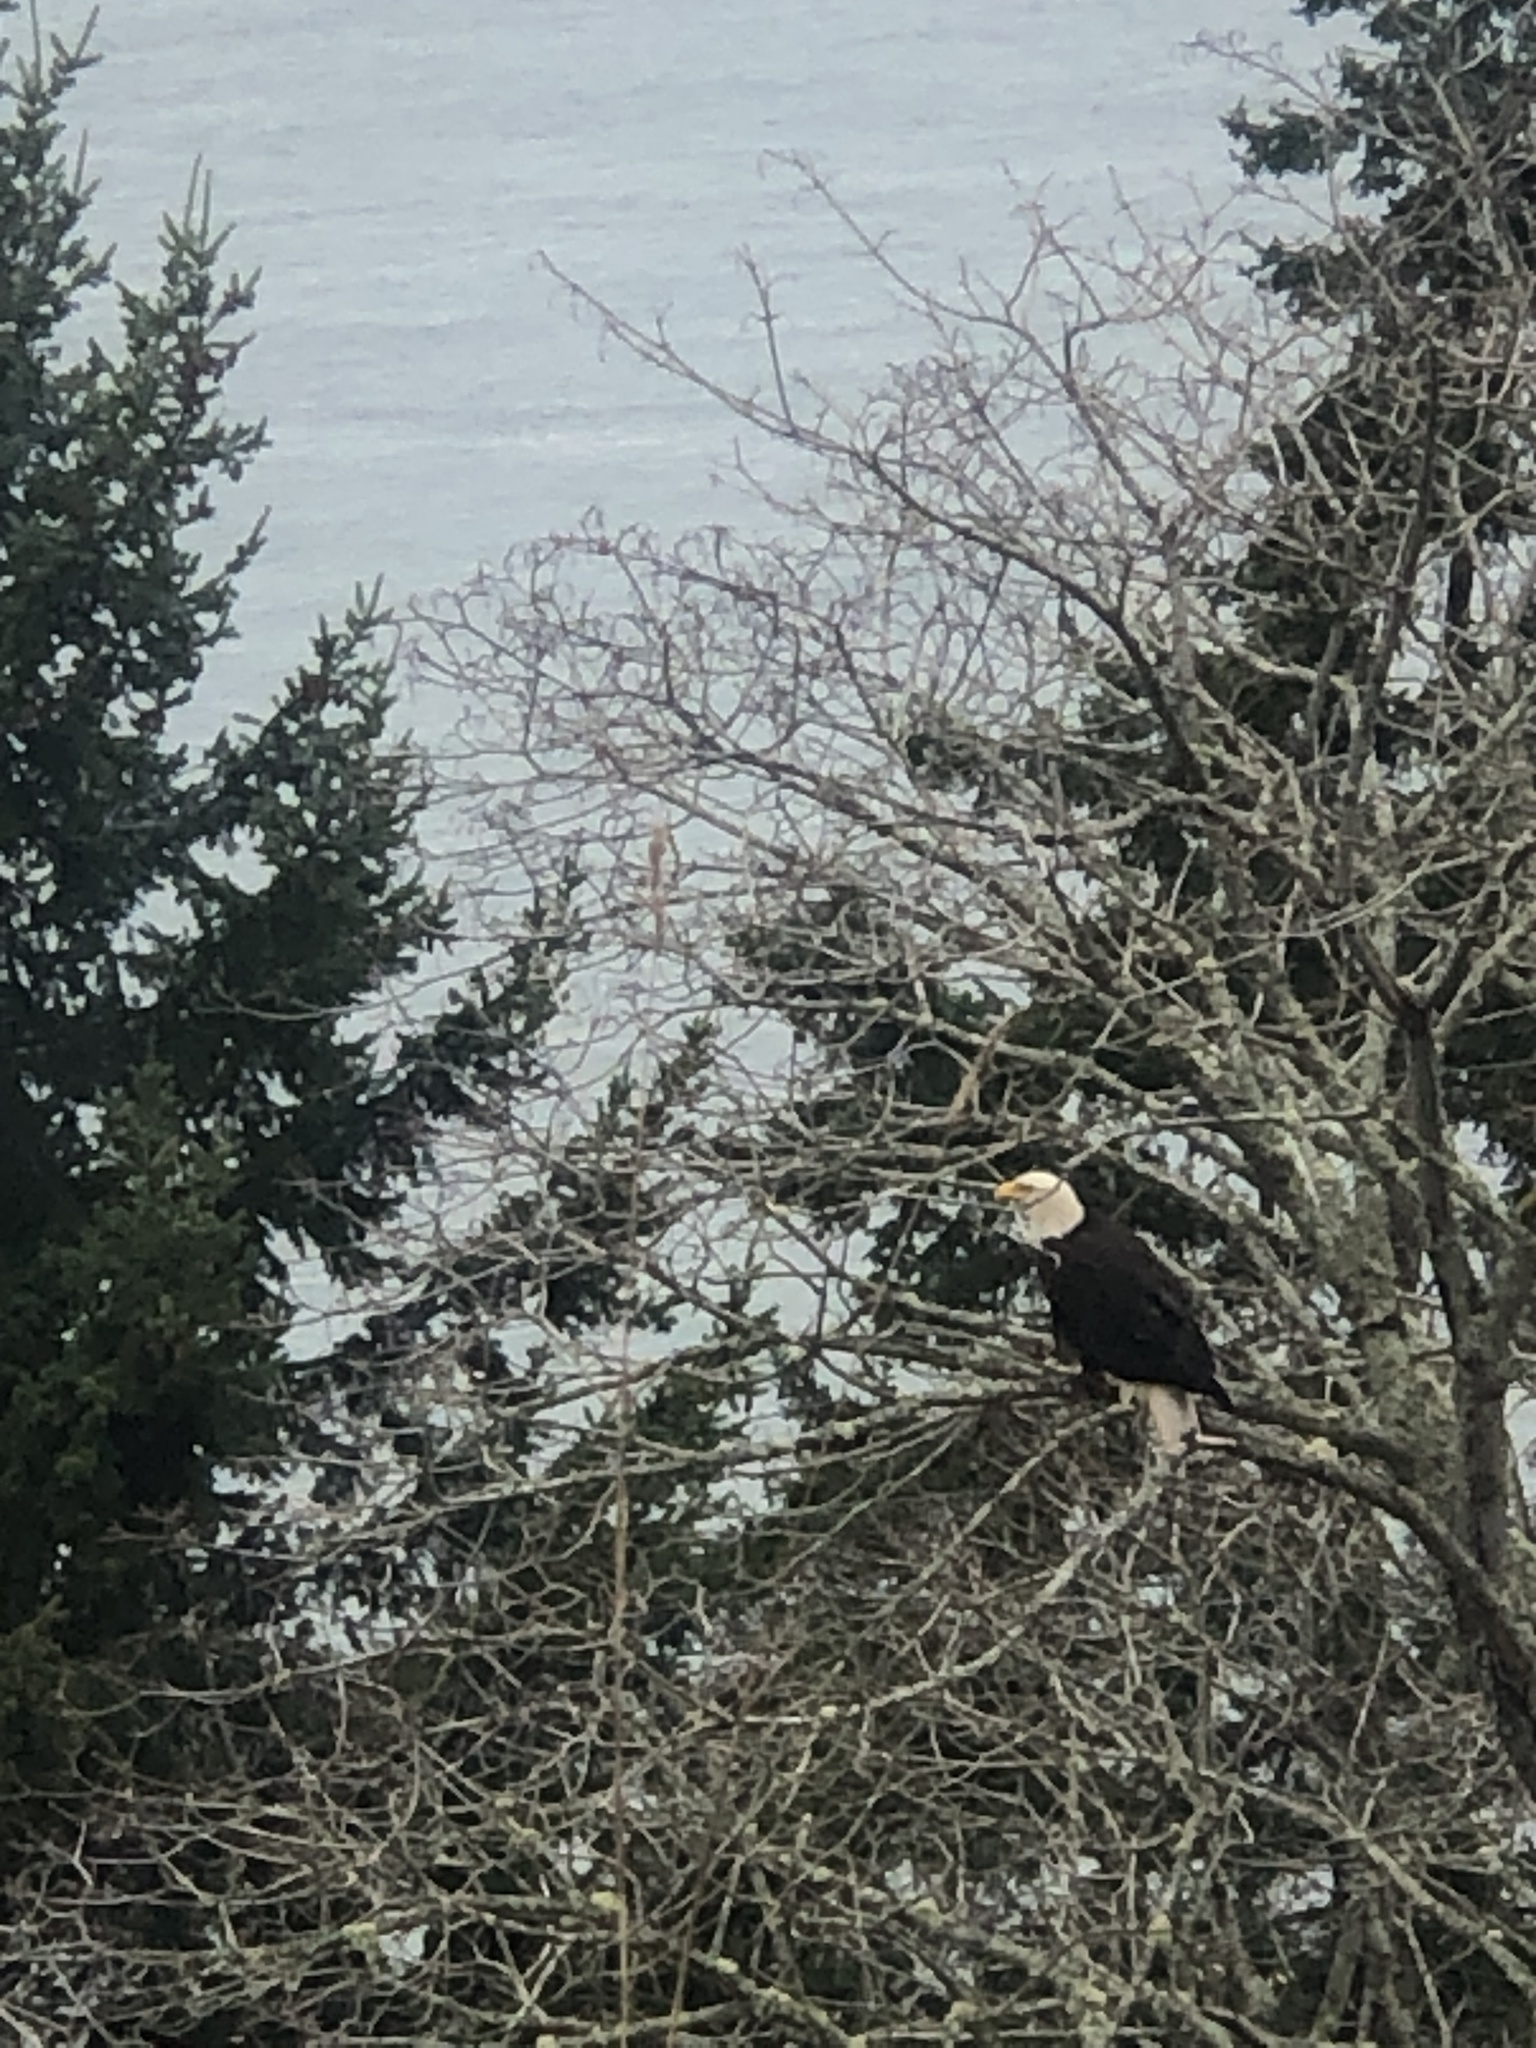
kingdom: Animalia
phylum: Chordata
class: Aves
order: Accipitriformes
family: Accipitridae
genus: Haliaeetus
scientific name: Haliaeetus leucocephalus
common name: Bald eagle
